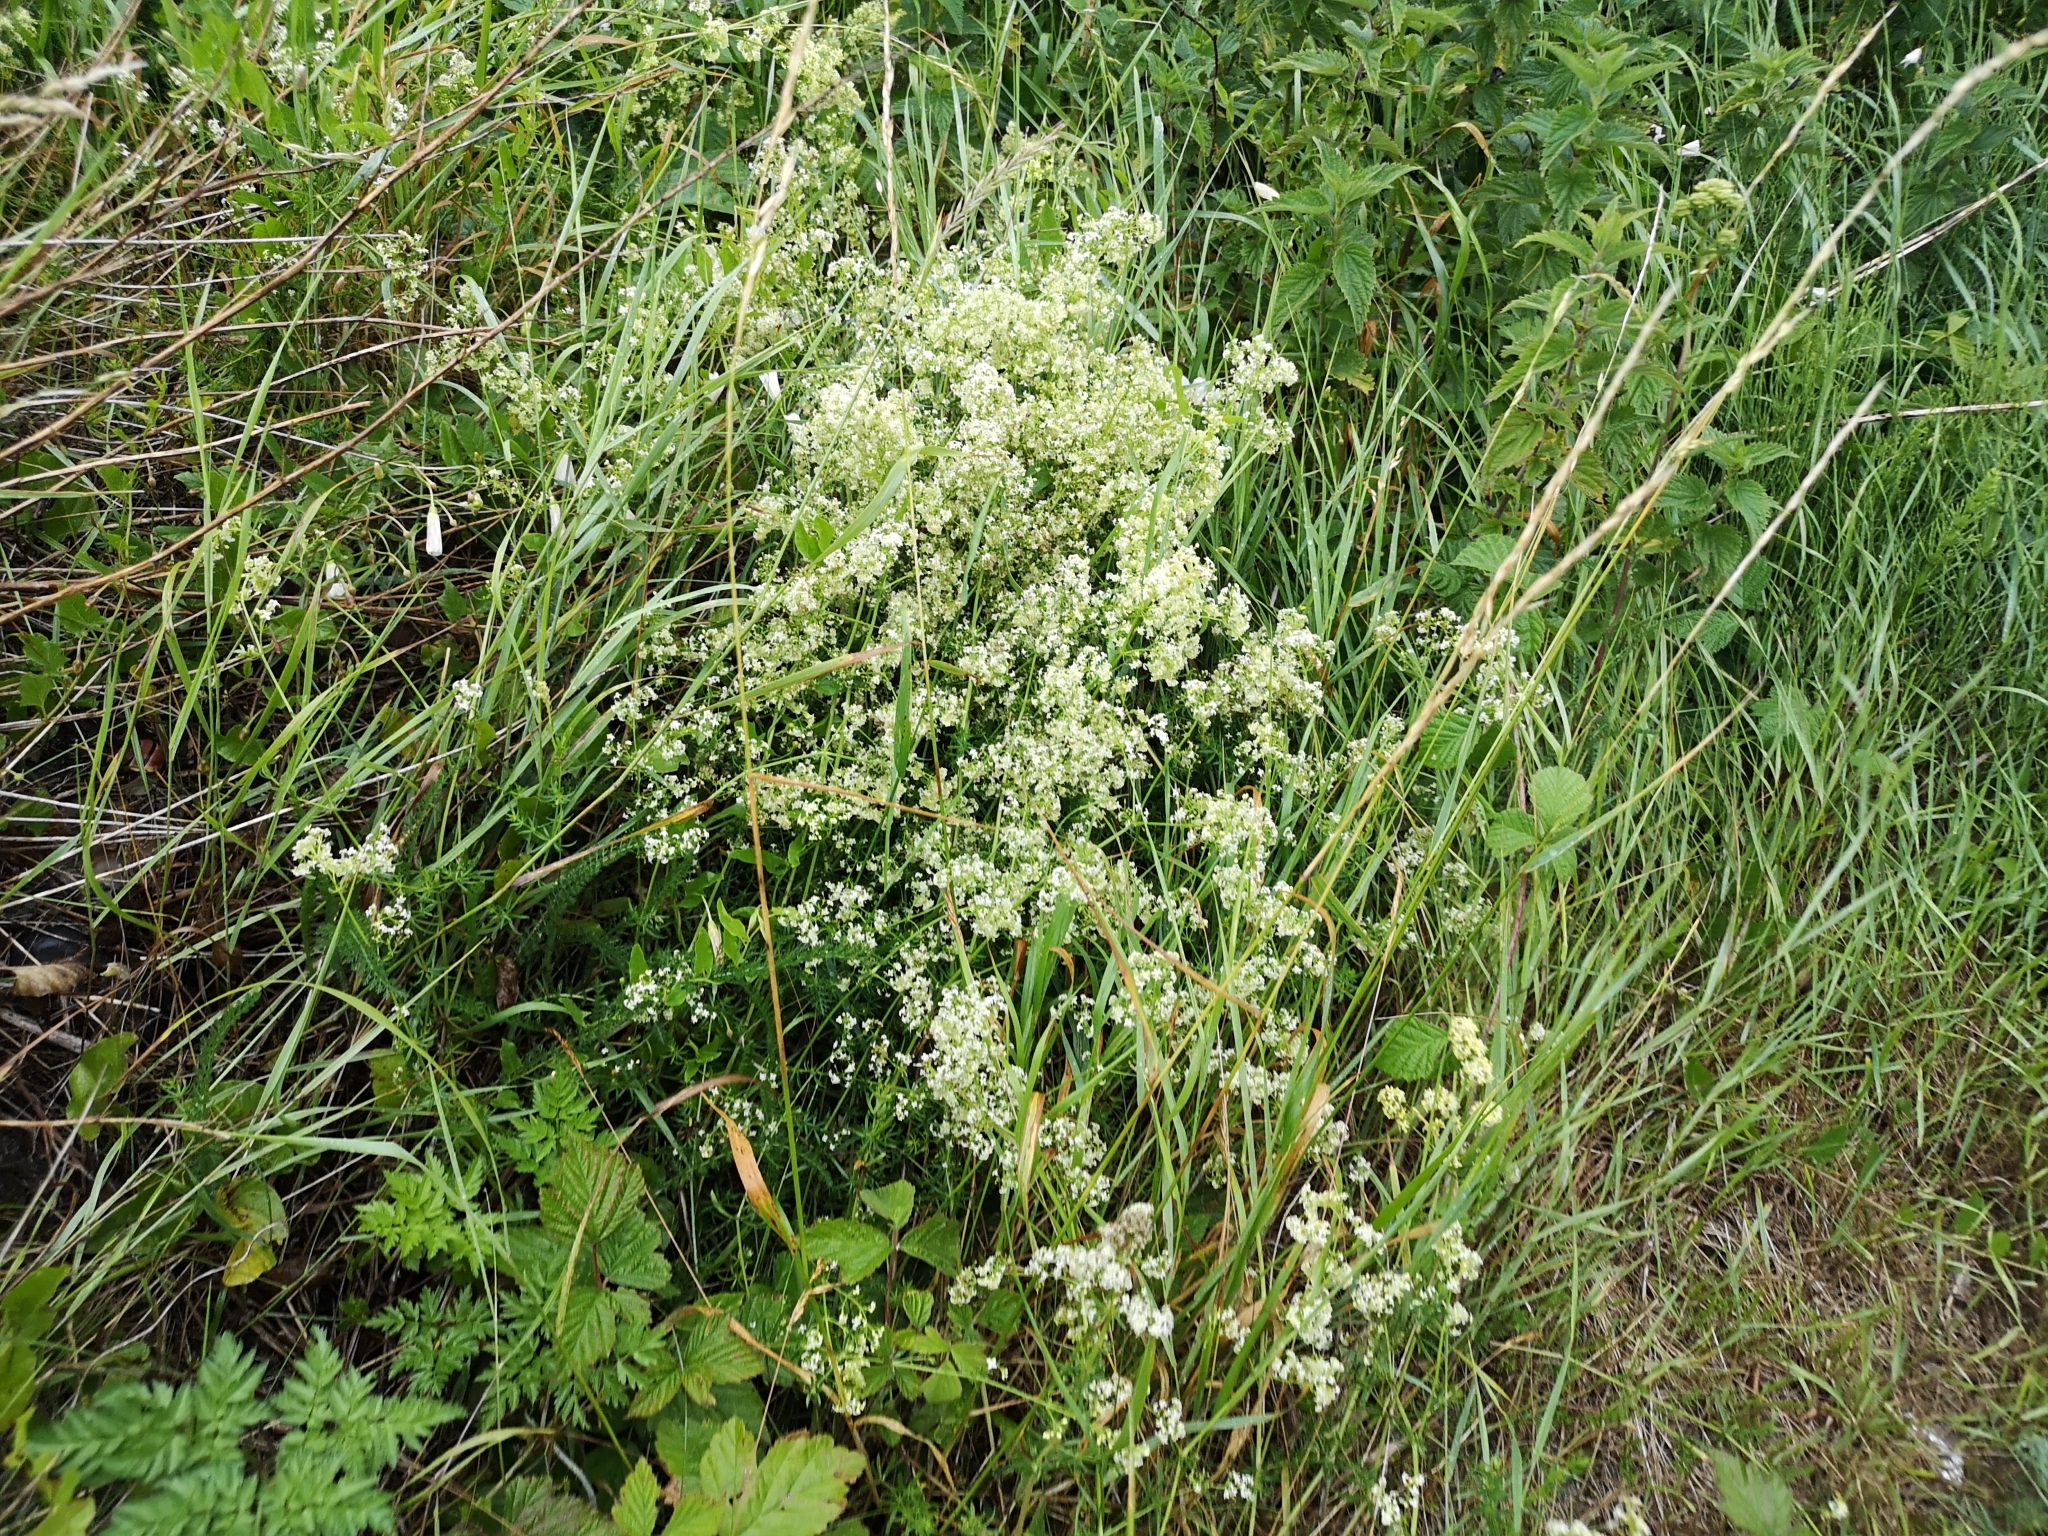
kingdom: Plantae
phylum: Tracheophyta
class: Magnoliopsida
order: Gentianales
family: Rubiaceae
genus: Galium
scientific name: Galium mollugo
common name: Hedge bedstraw
